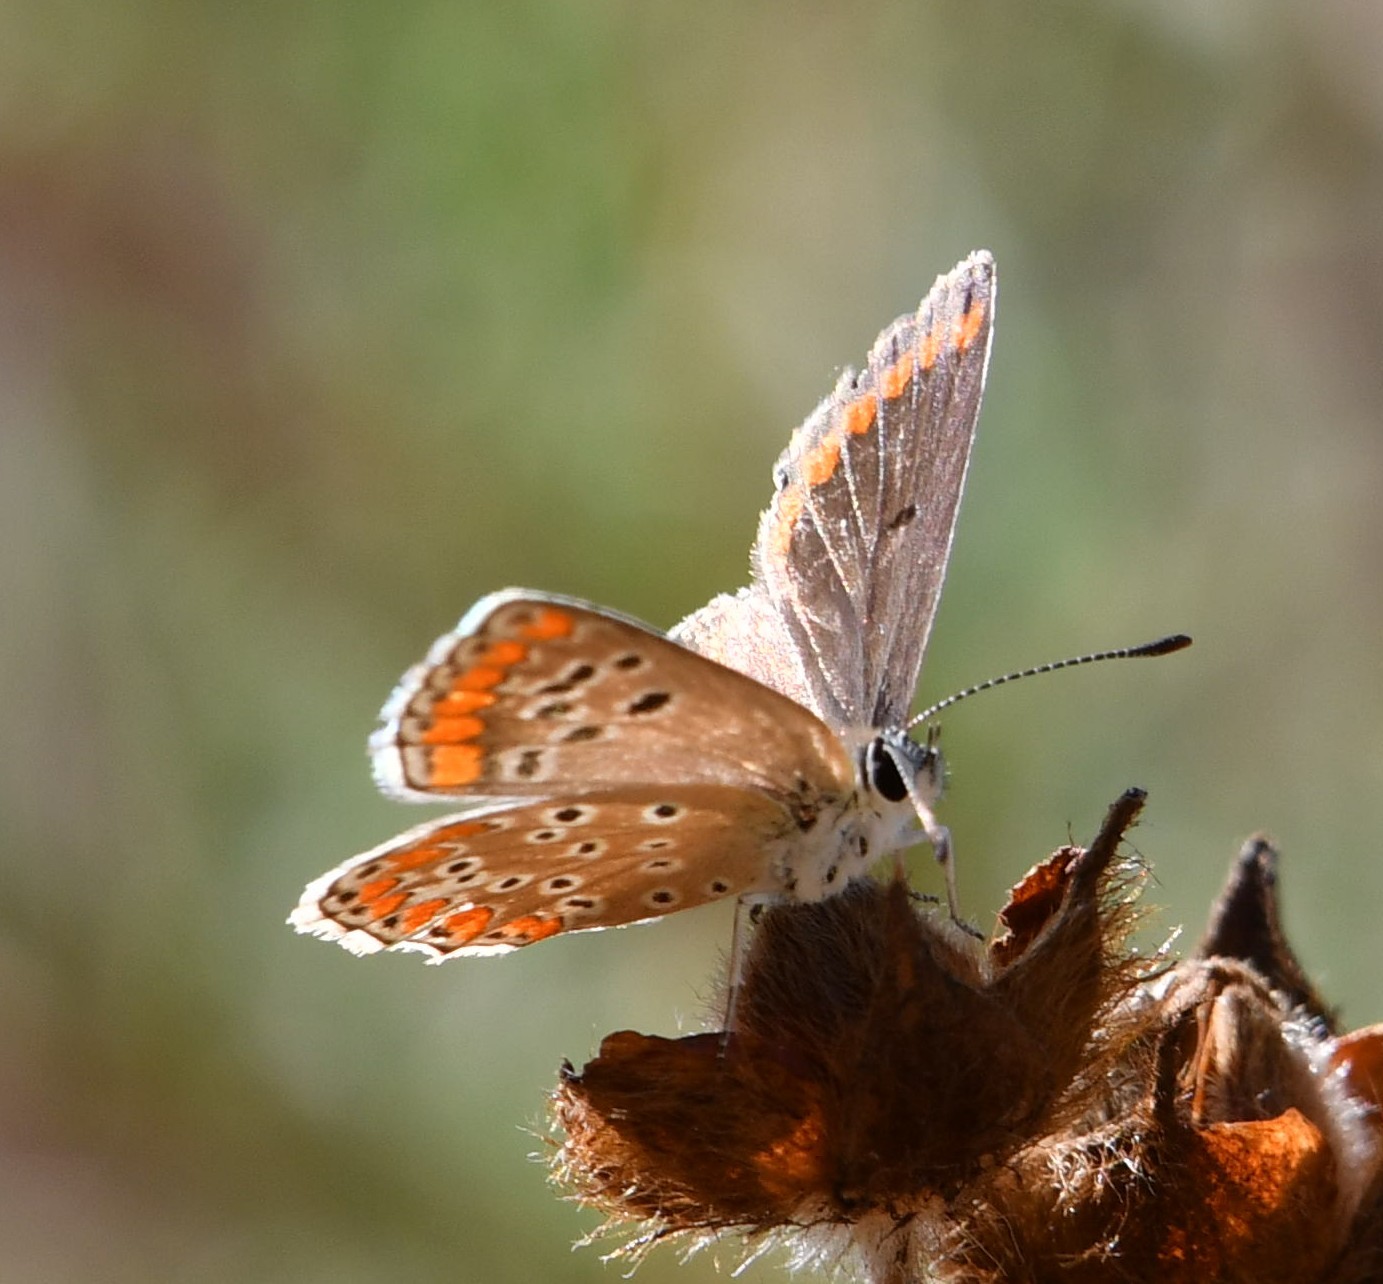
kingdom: Animalia
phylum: Arthropoda
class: Insecta
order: Lepidoptera
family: Lycaenidae
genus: Aricia
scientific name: Aricia agestis
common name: Brown argus
